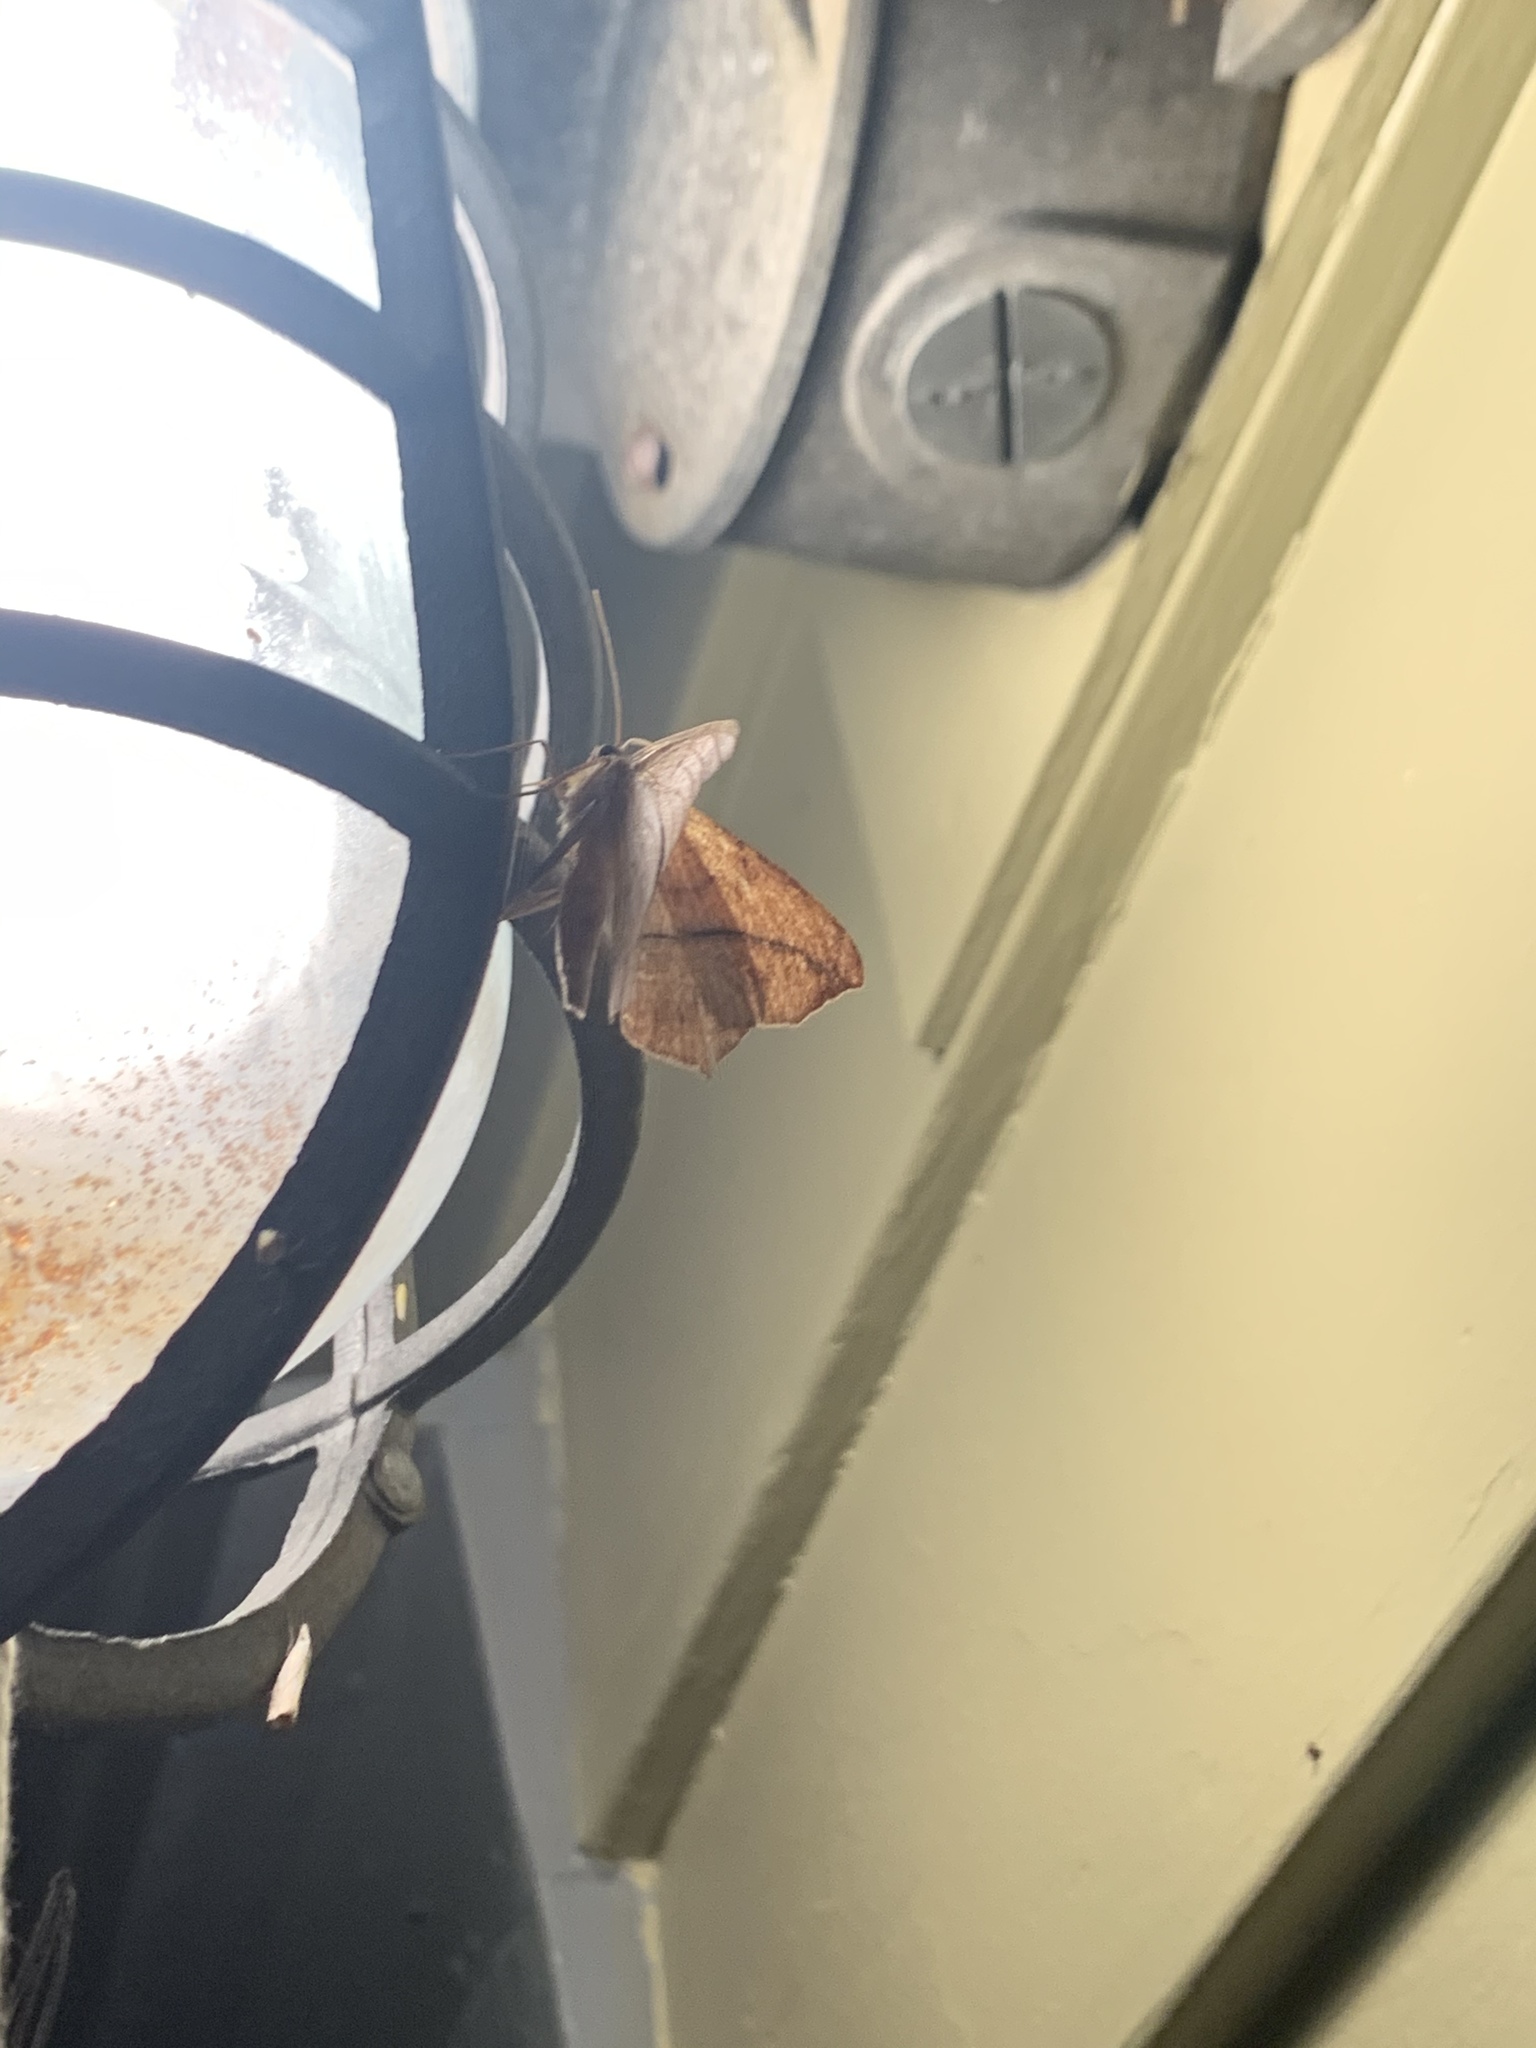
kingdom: Animalia
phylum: Arthropoda
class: Insecta
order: Lepidoptera
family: Geometridae
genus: Prochoerodes
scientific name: Prochoerodes lineola
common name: Large maple spanworm
